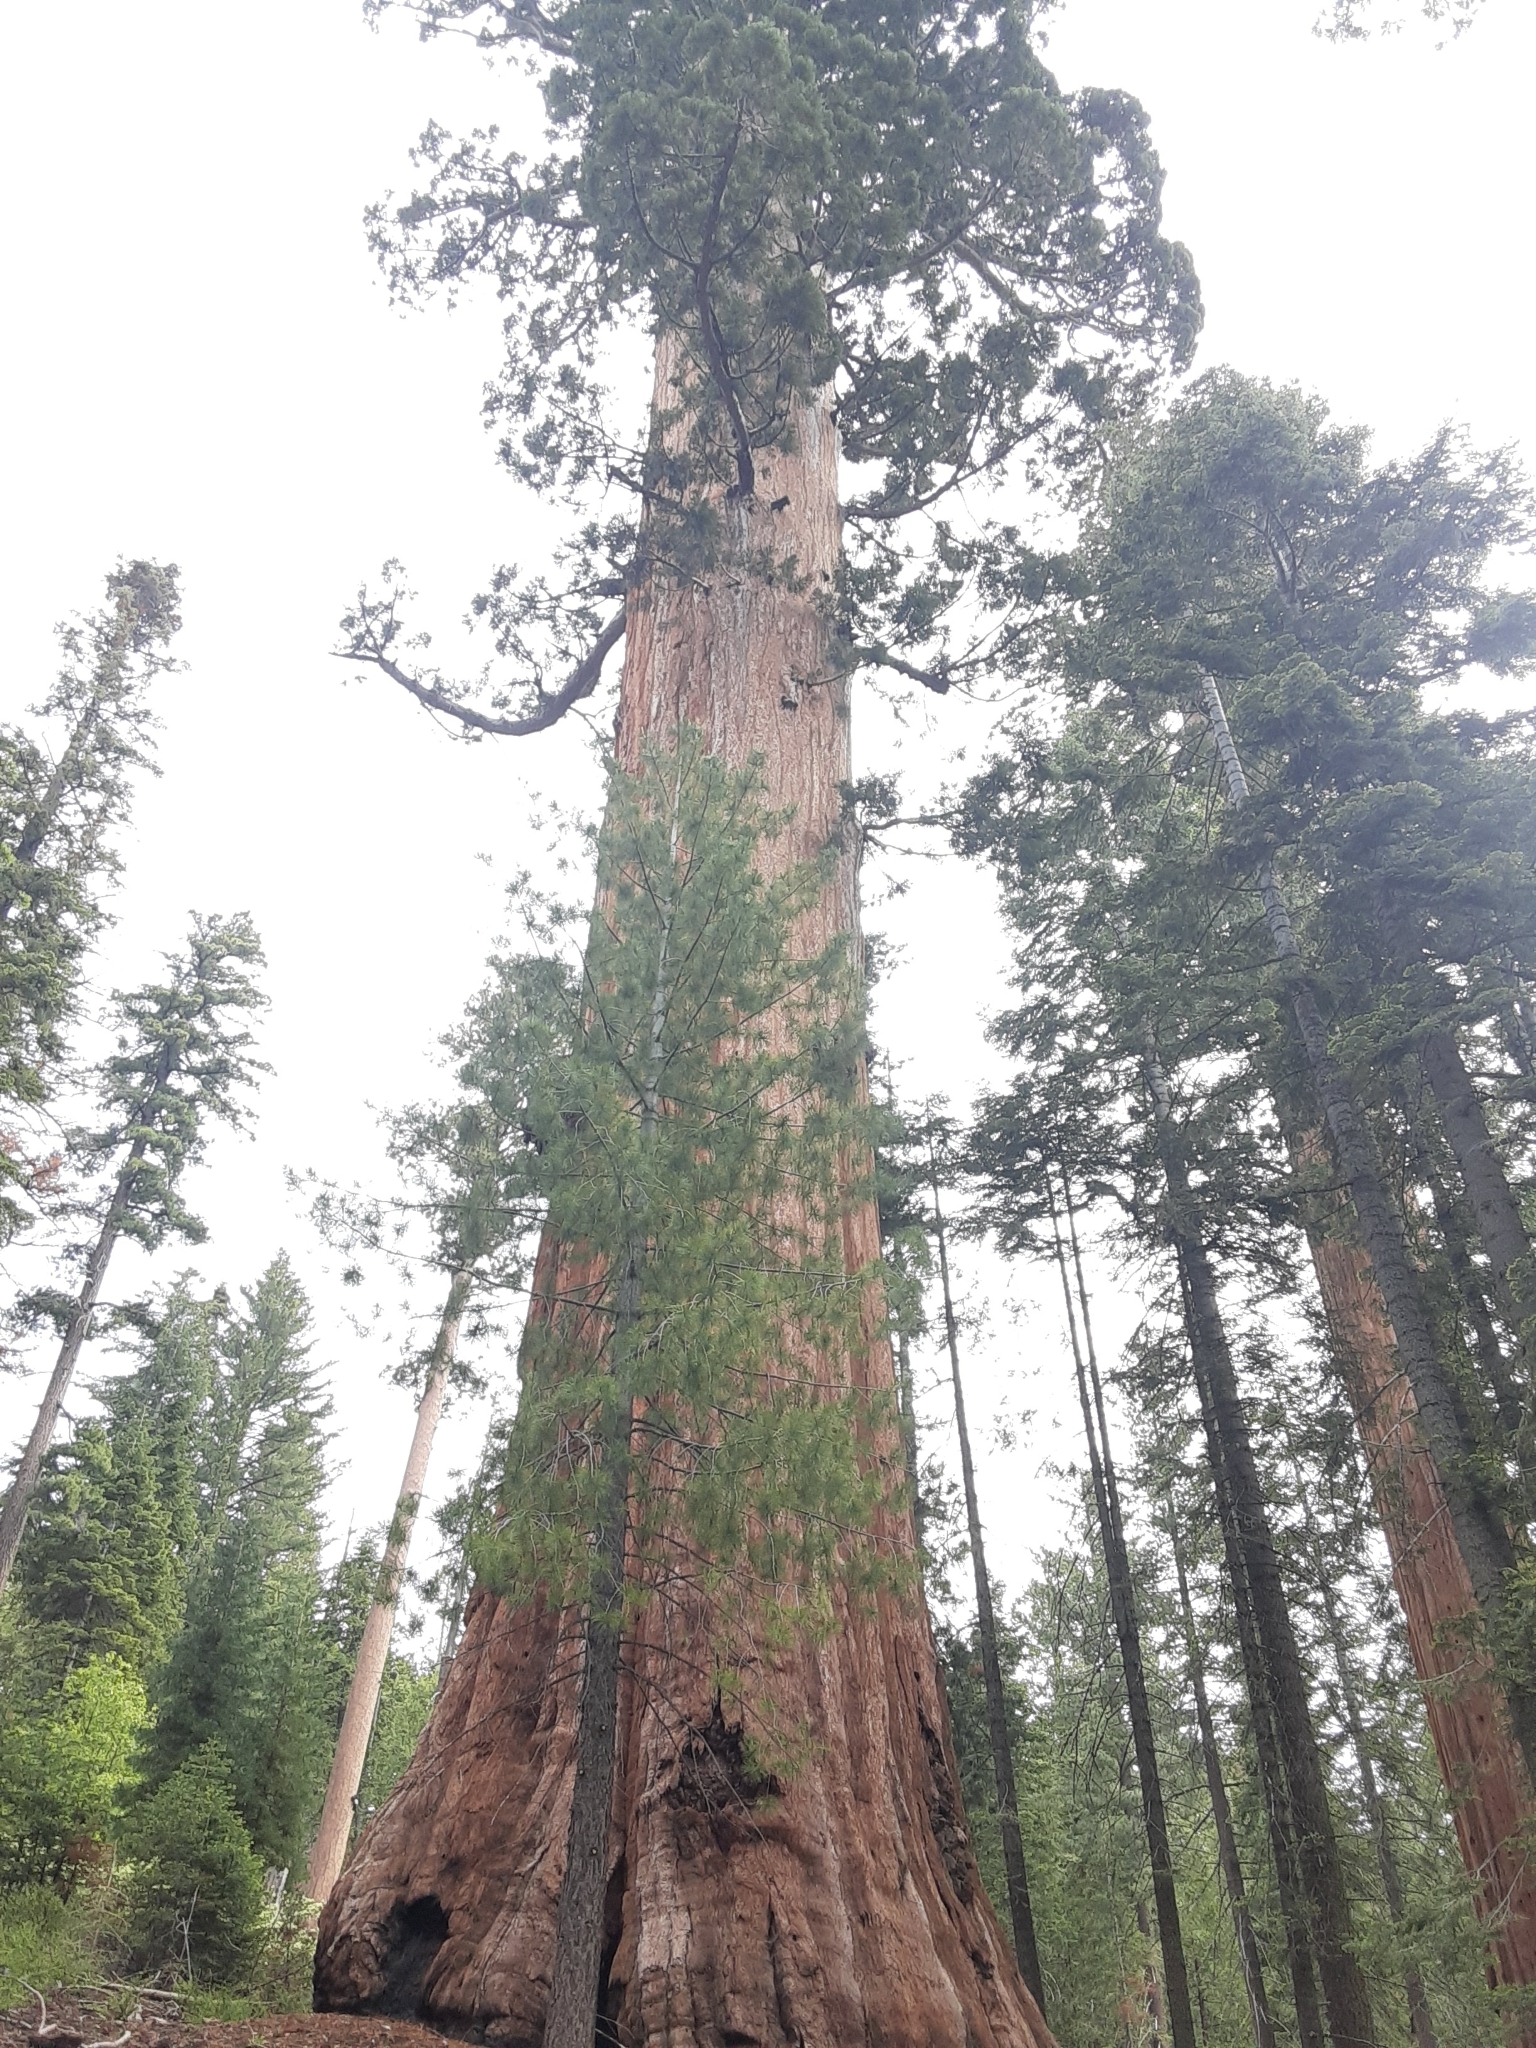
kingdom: Plantae
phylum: Tracheophyta
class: Pinopsida
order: Pinales
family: Cupressaceae
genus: Sequoiadendron
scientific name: Sequoiadendron giganteum
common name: Wellingtonia
